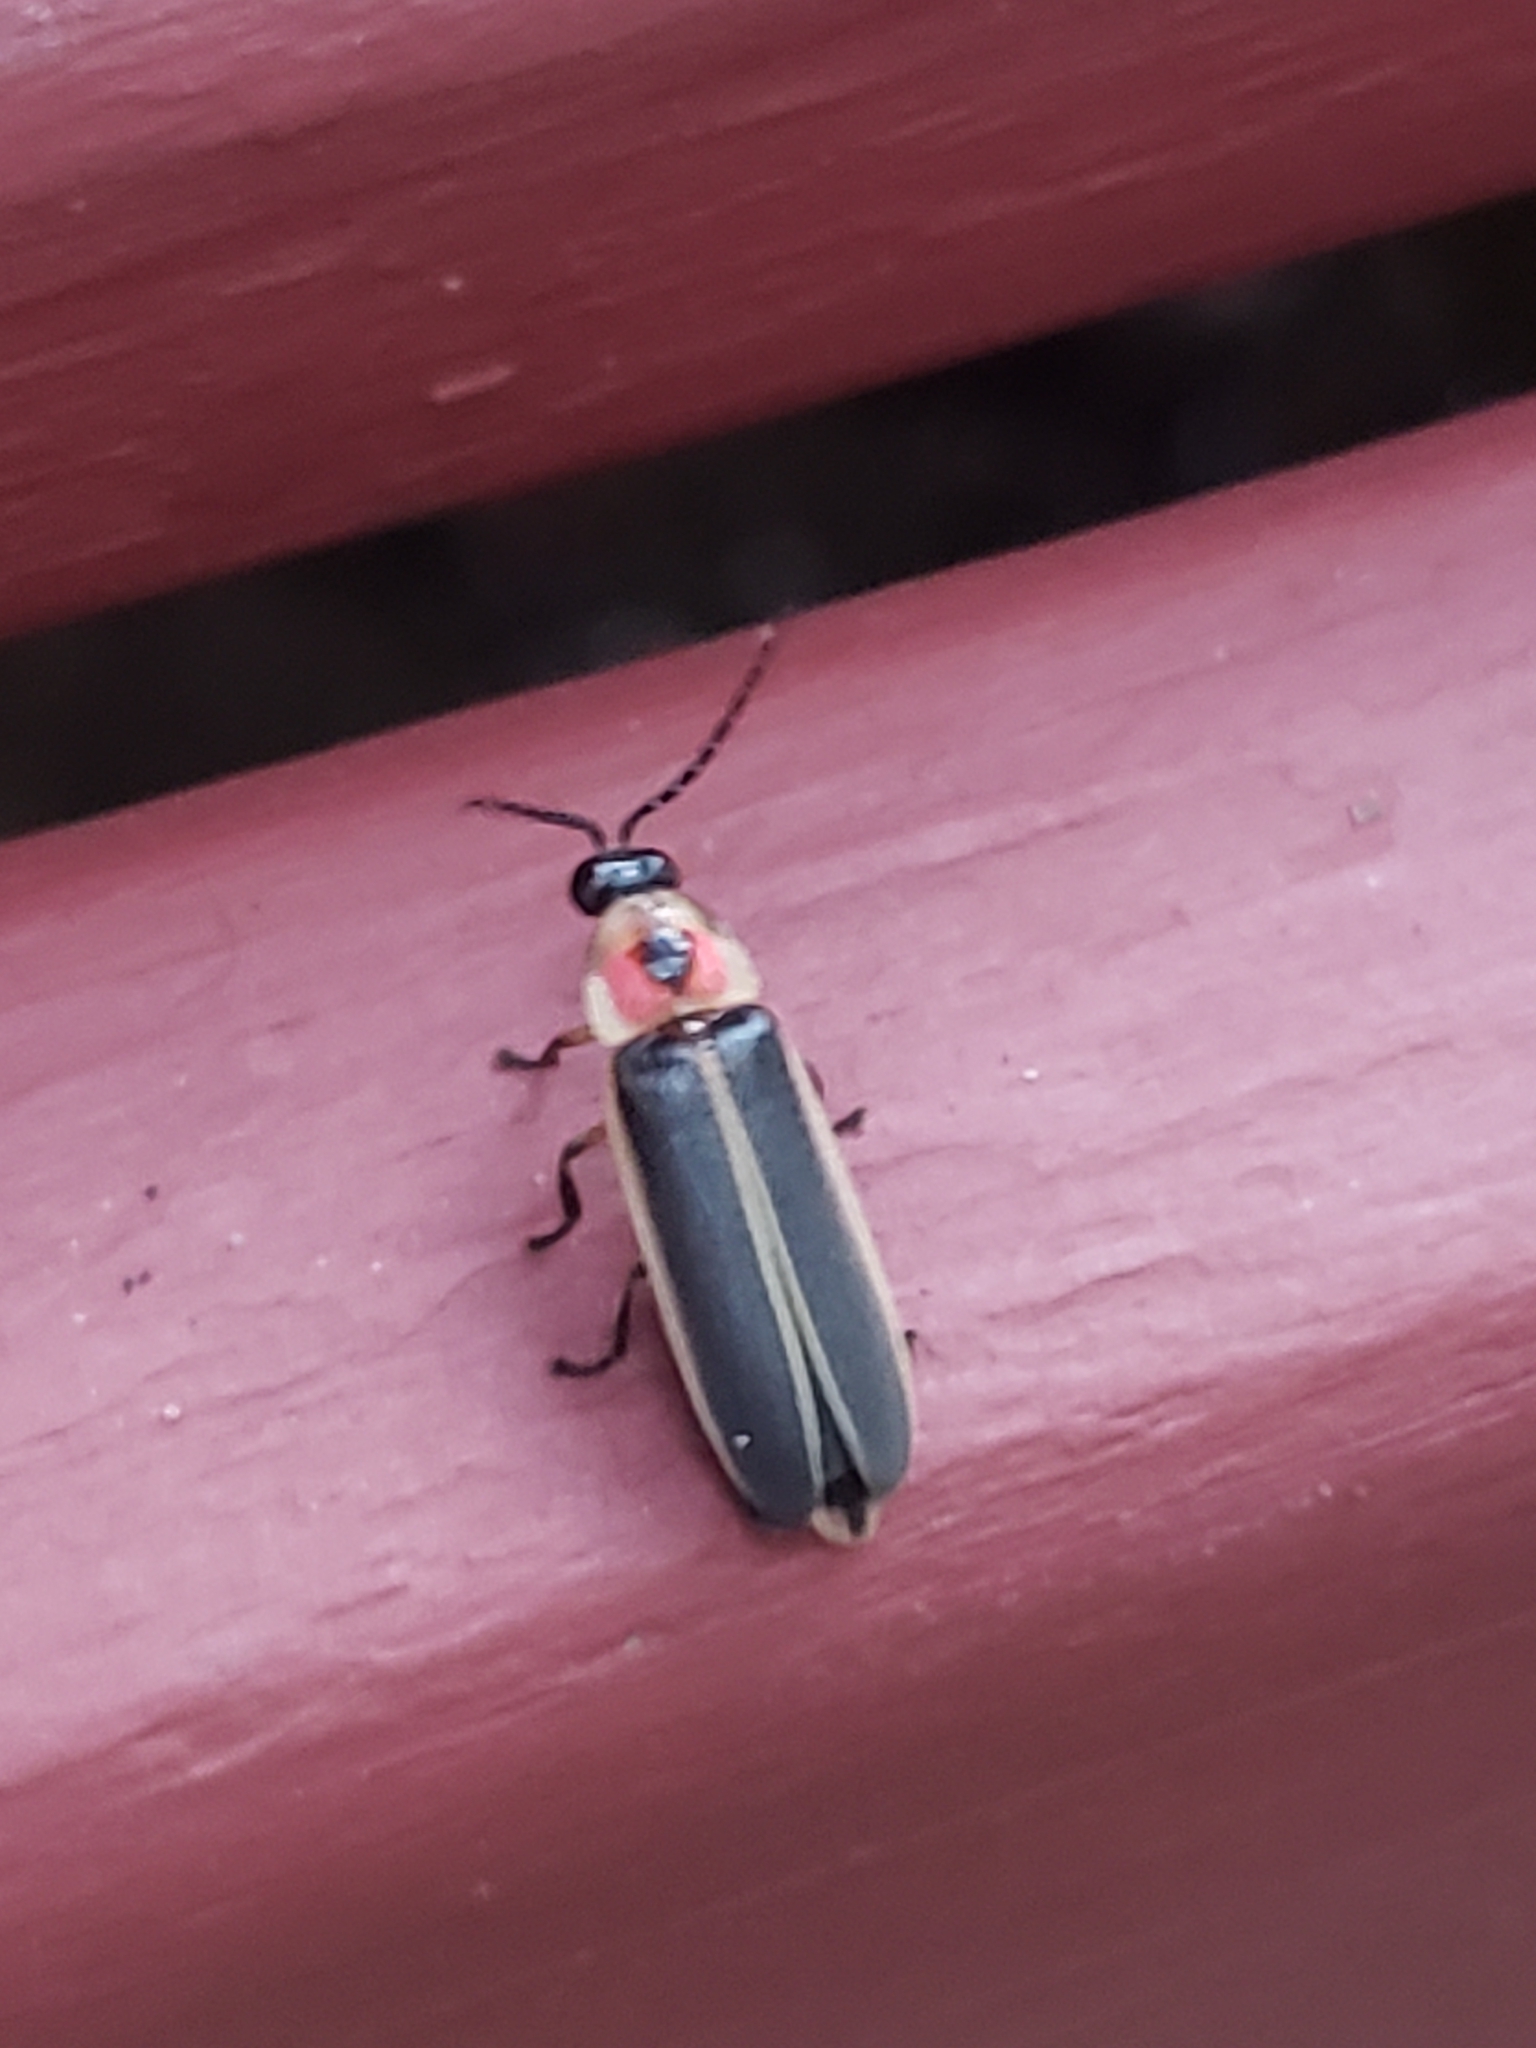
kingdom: Animalia
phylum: Arthropoda
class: Insecta
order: Coleoptera
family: Lampyridae
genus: Photinus
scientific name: Photinus pyralis
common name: Big dipper firefly
